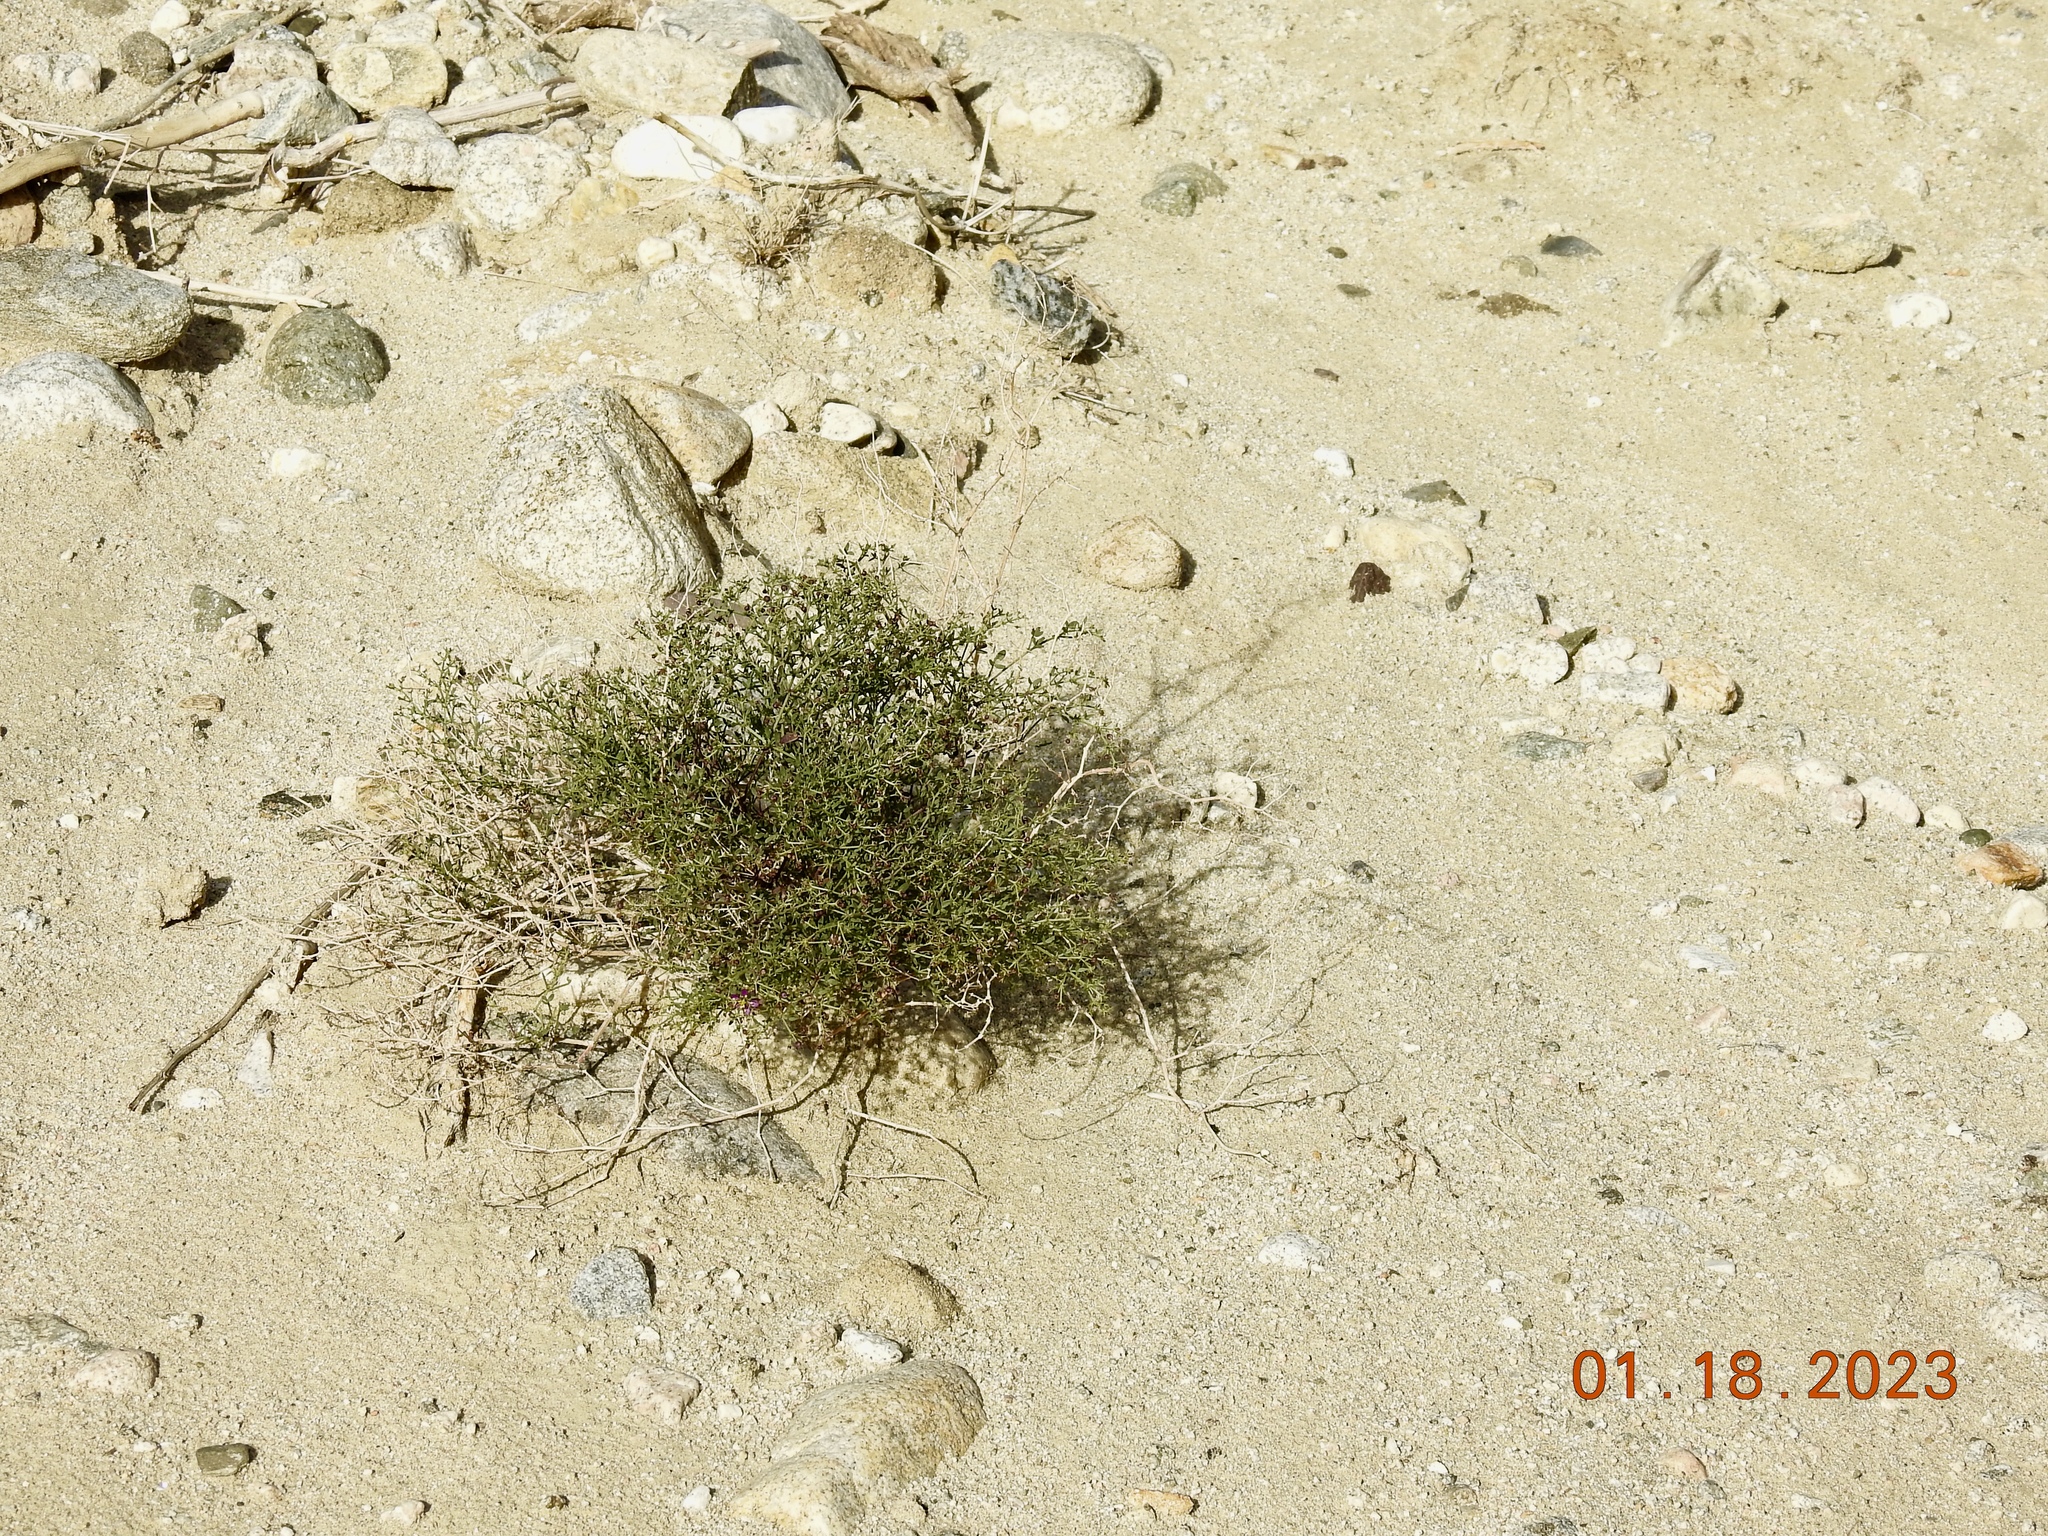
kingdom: Plantae
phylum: Tracheophyta
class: Magnoliopsida
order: Zygophyllales
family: Zygophyllaceae
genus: Fagonia
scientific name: Fagonia laevis
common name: California fagonbush
